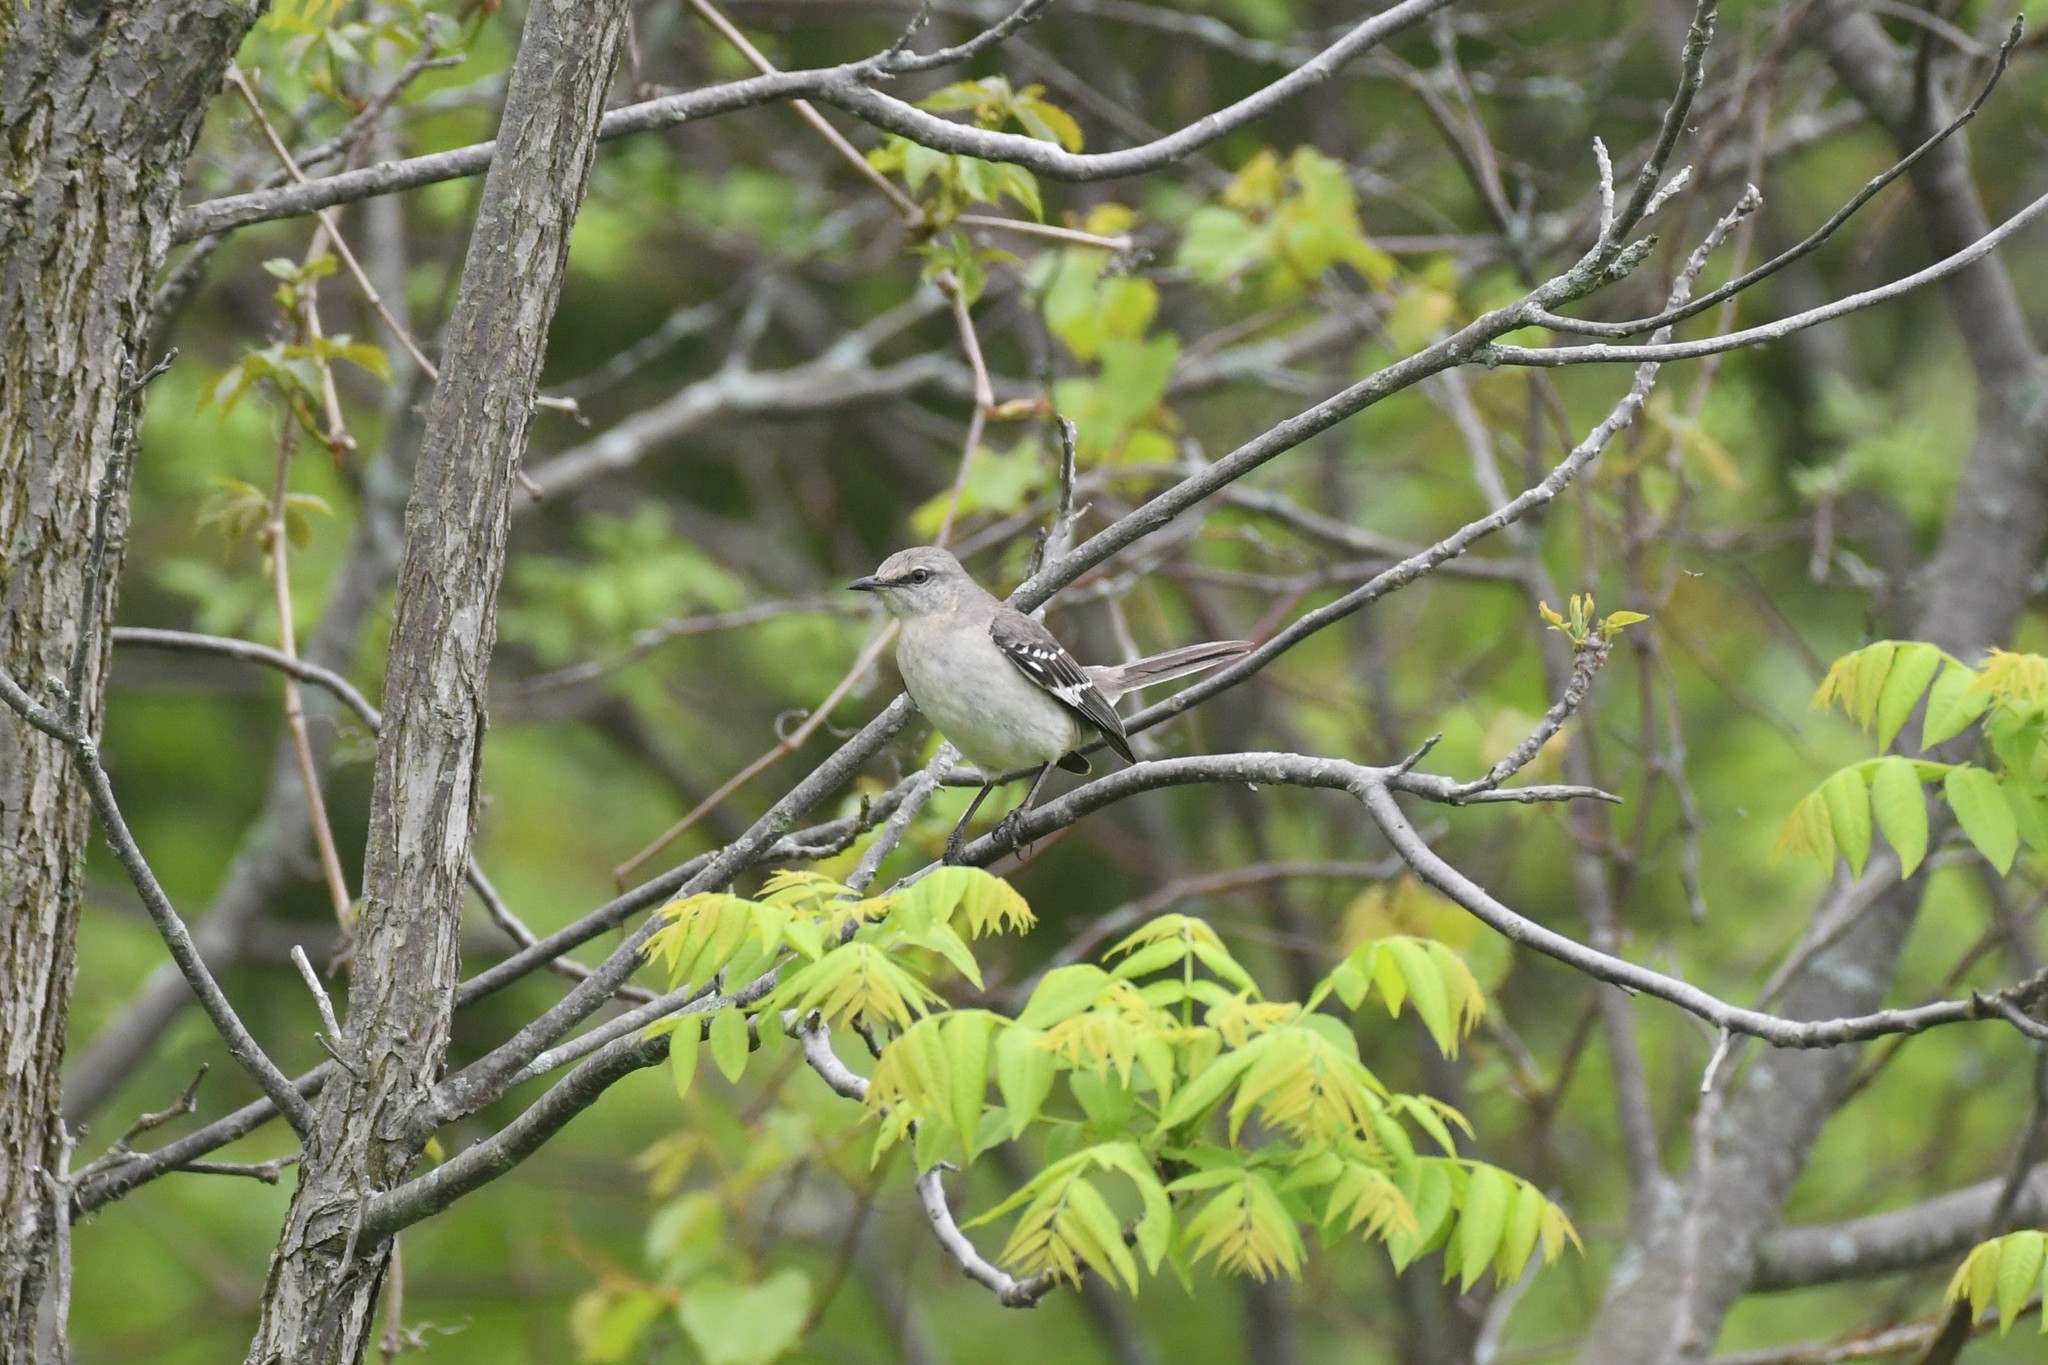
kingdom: Animalia
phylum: Chordata
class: Aves
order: Passeriformes
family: Mimidae
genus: Mimus
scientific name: Mimus polyglottos
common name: Northern mockingbird
